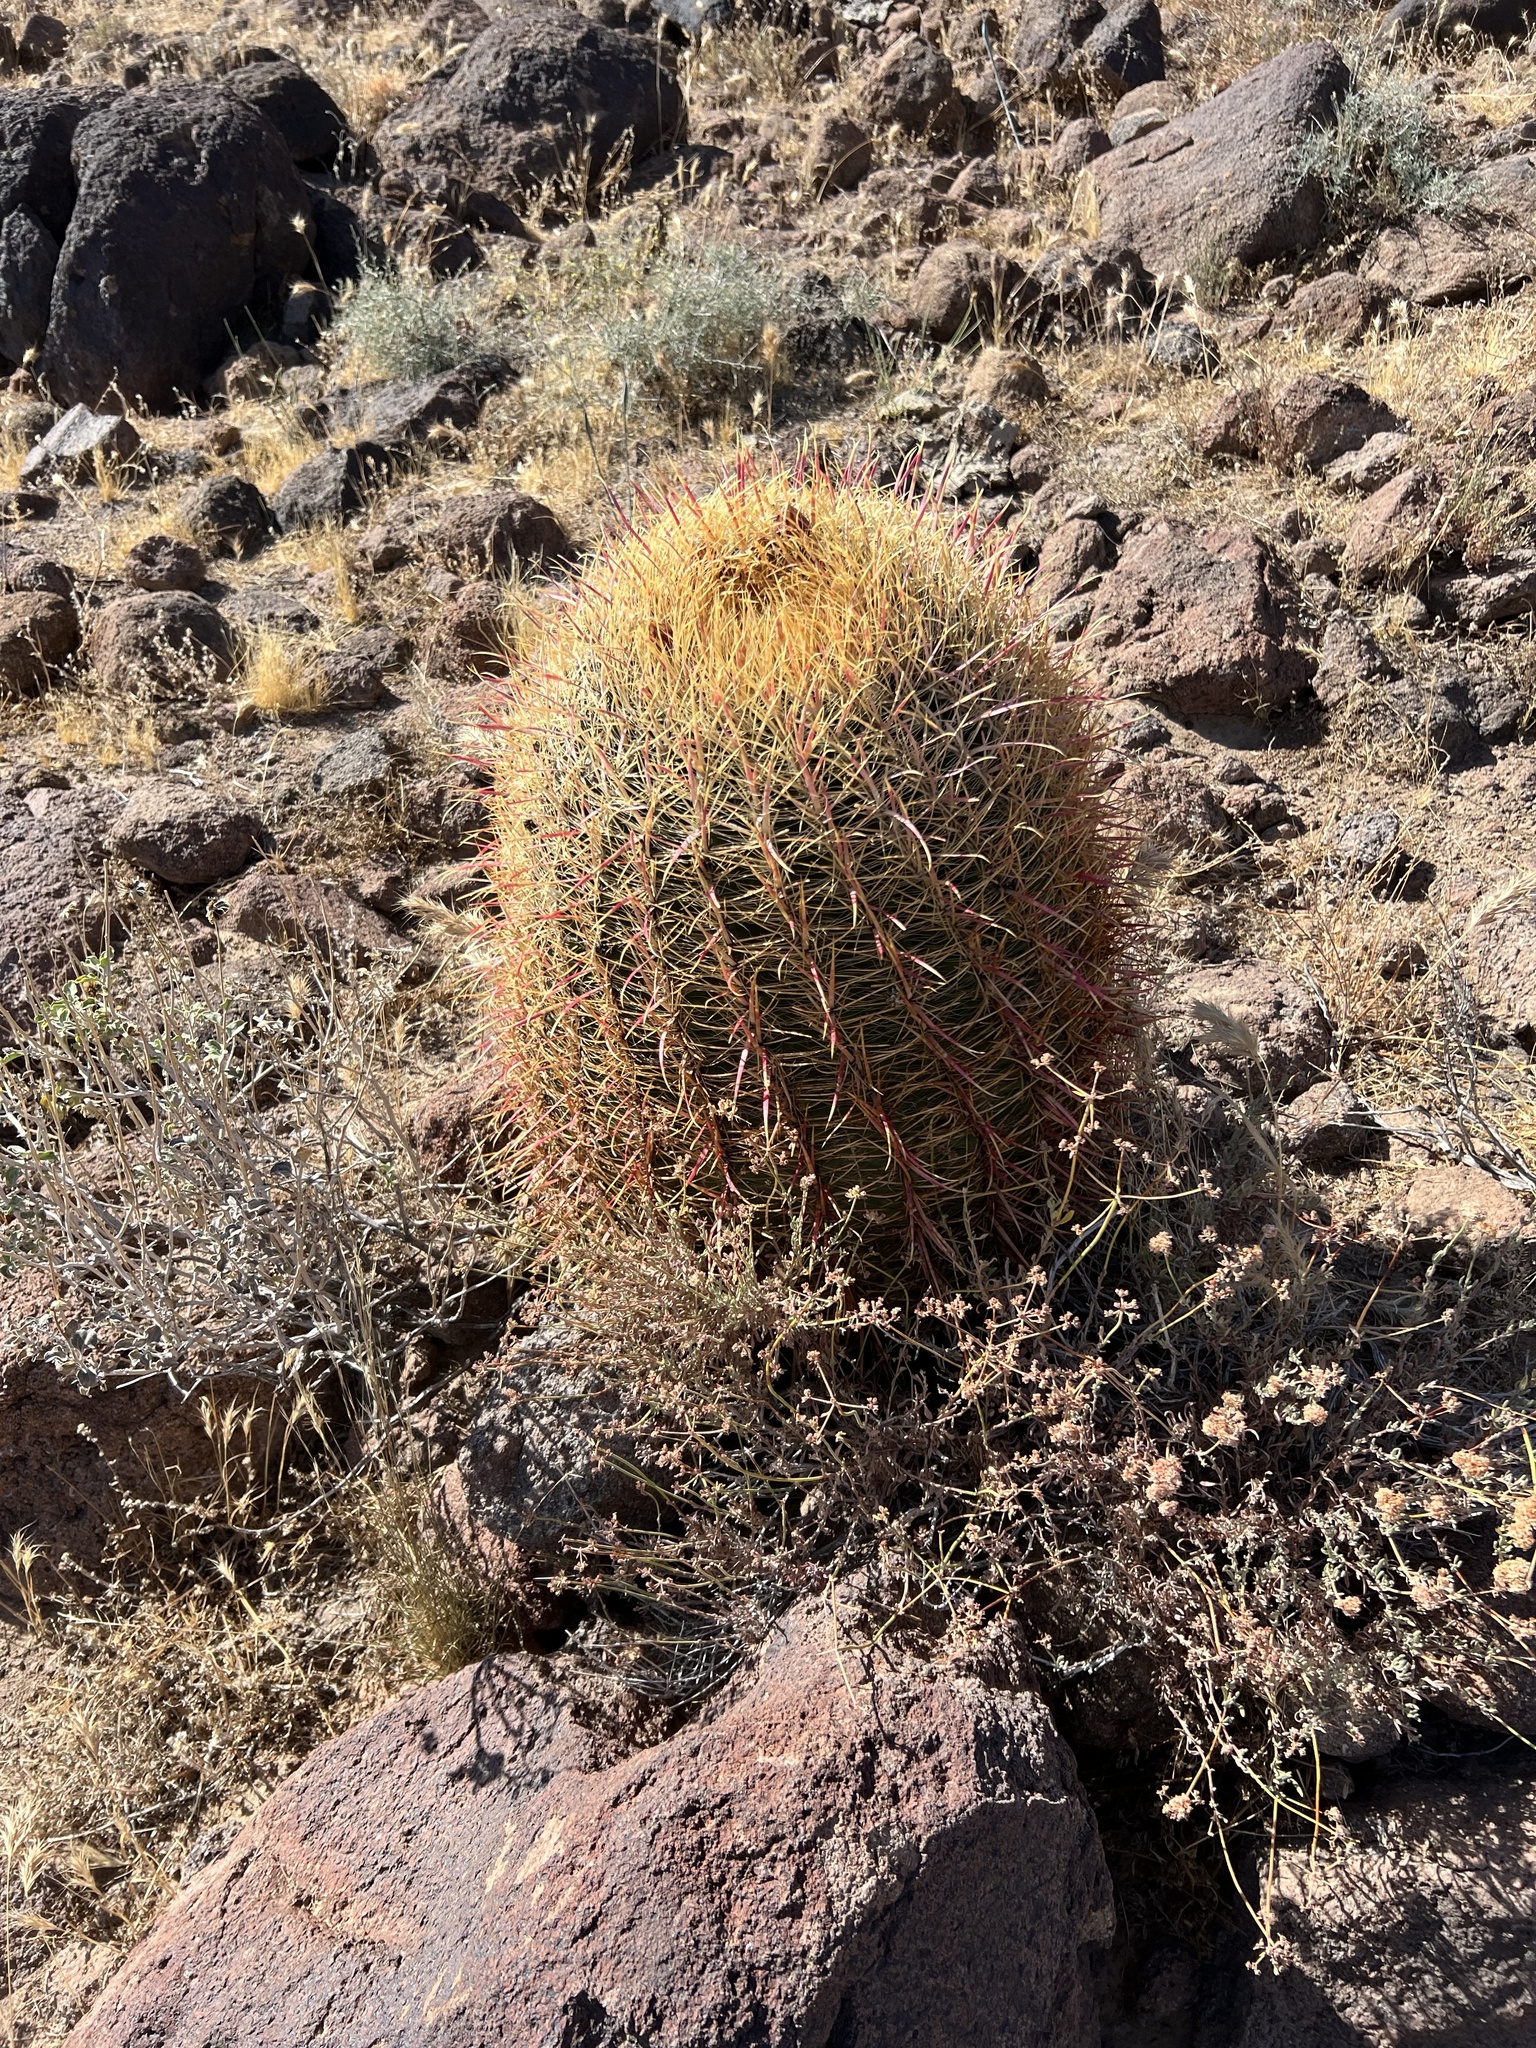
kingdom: Plantae
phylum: Tracheophyta
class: Magnoliopsida
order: Caryophyllales
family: Cactaceae
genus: Ferocactus
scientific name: Ferocactus cylindraceus
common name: California barrel cactus
